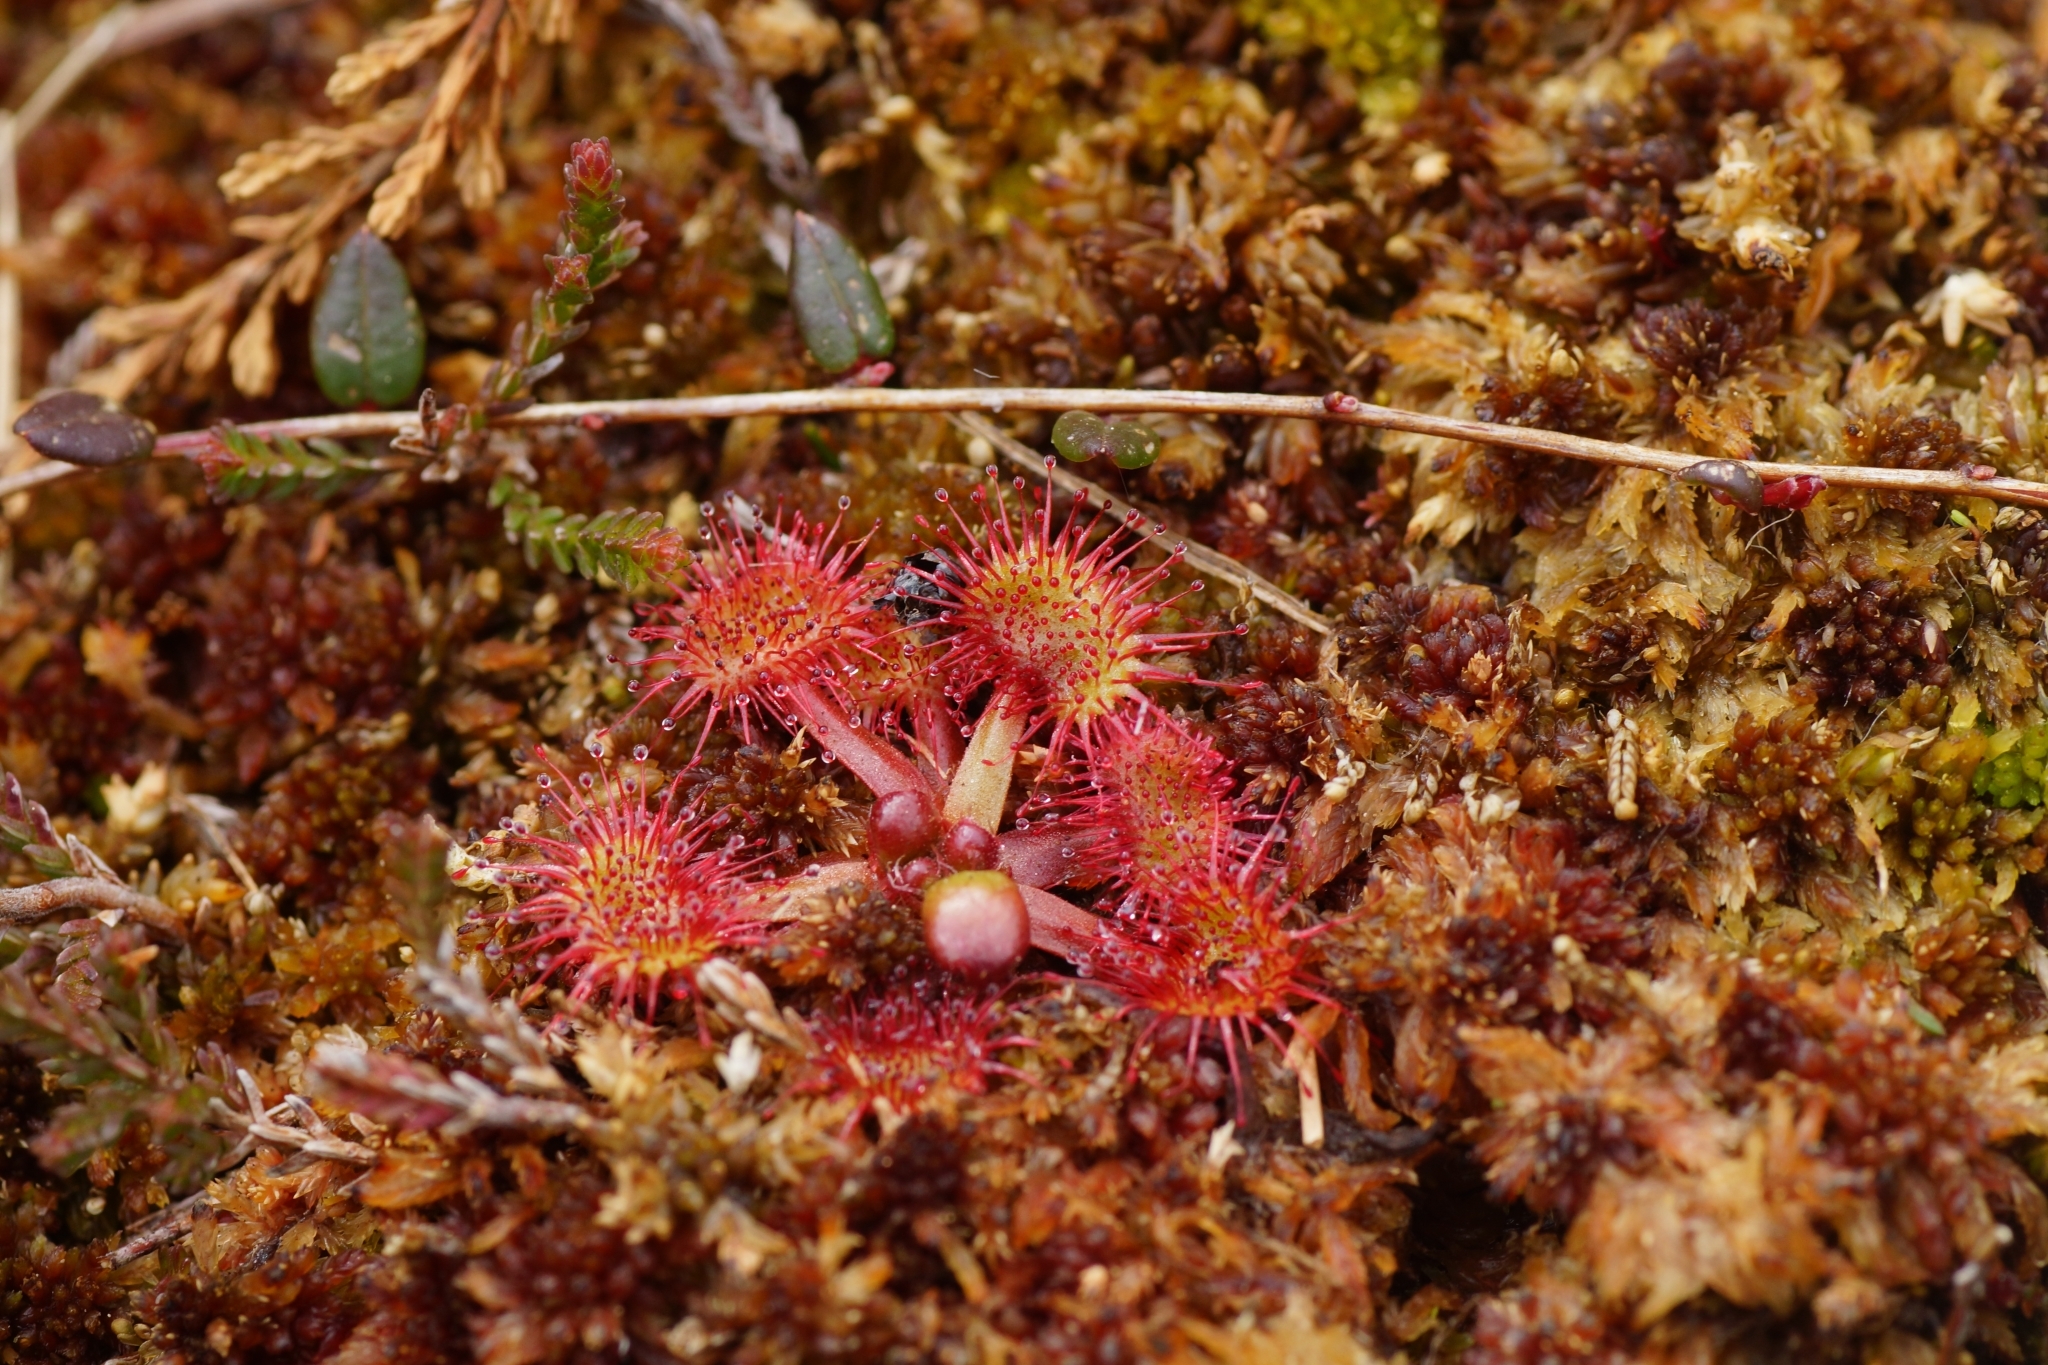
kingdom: Plantae
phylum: Tracheophyta
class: Magnoliopsida
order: Caryophyllales
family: Droseraceae
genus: Drosera
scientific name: Drosera rotundifolia
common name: Round-leaved sundew
